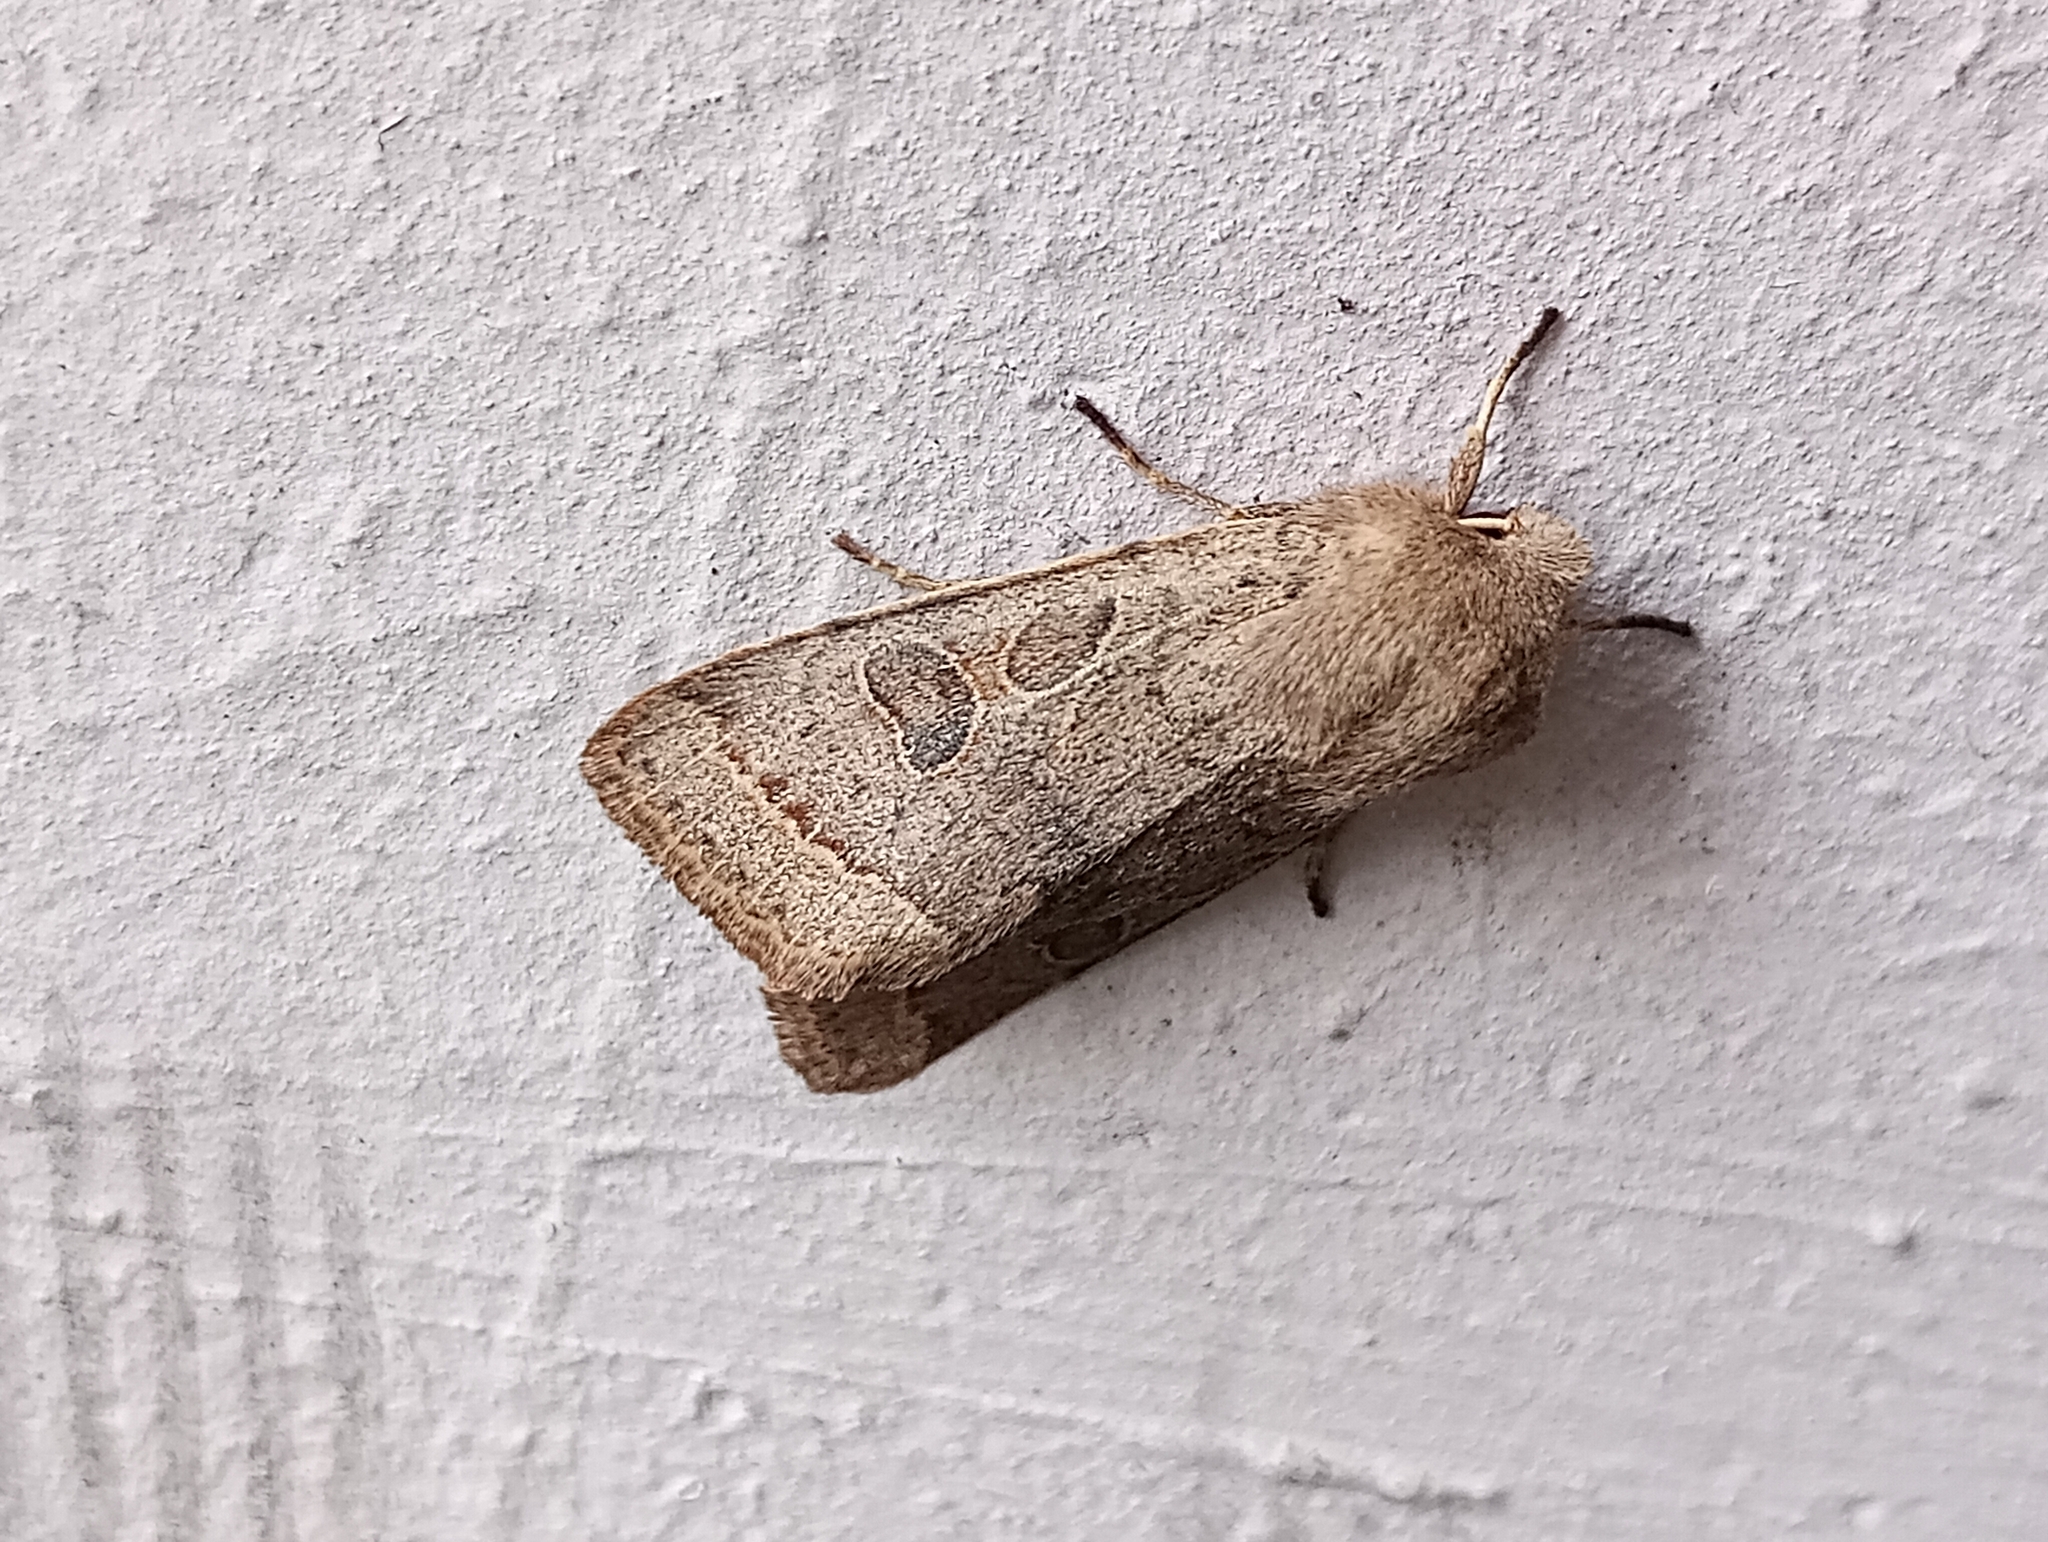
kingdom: Animalia
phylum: Arthropoda
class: Insecta
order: Lepidoptera
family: Noctuidae
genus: Orthosia
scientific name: Orthosia cerasi
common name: Common quaker
